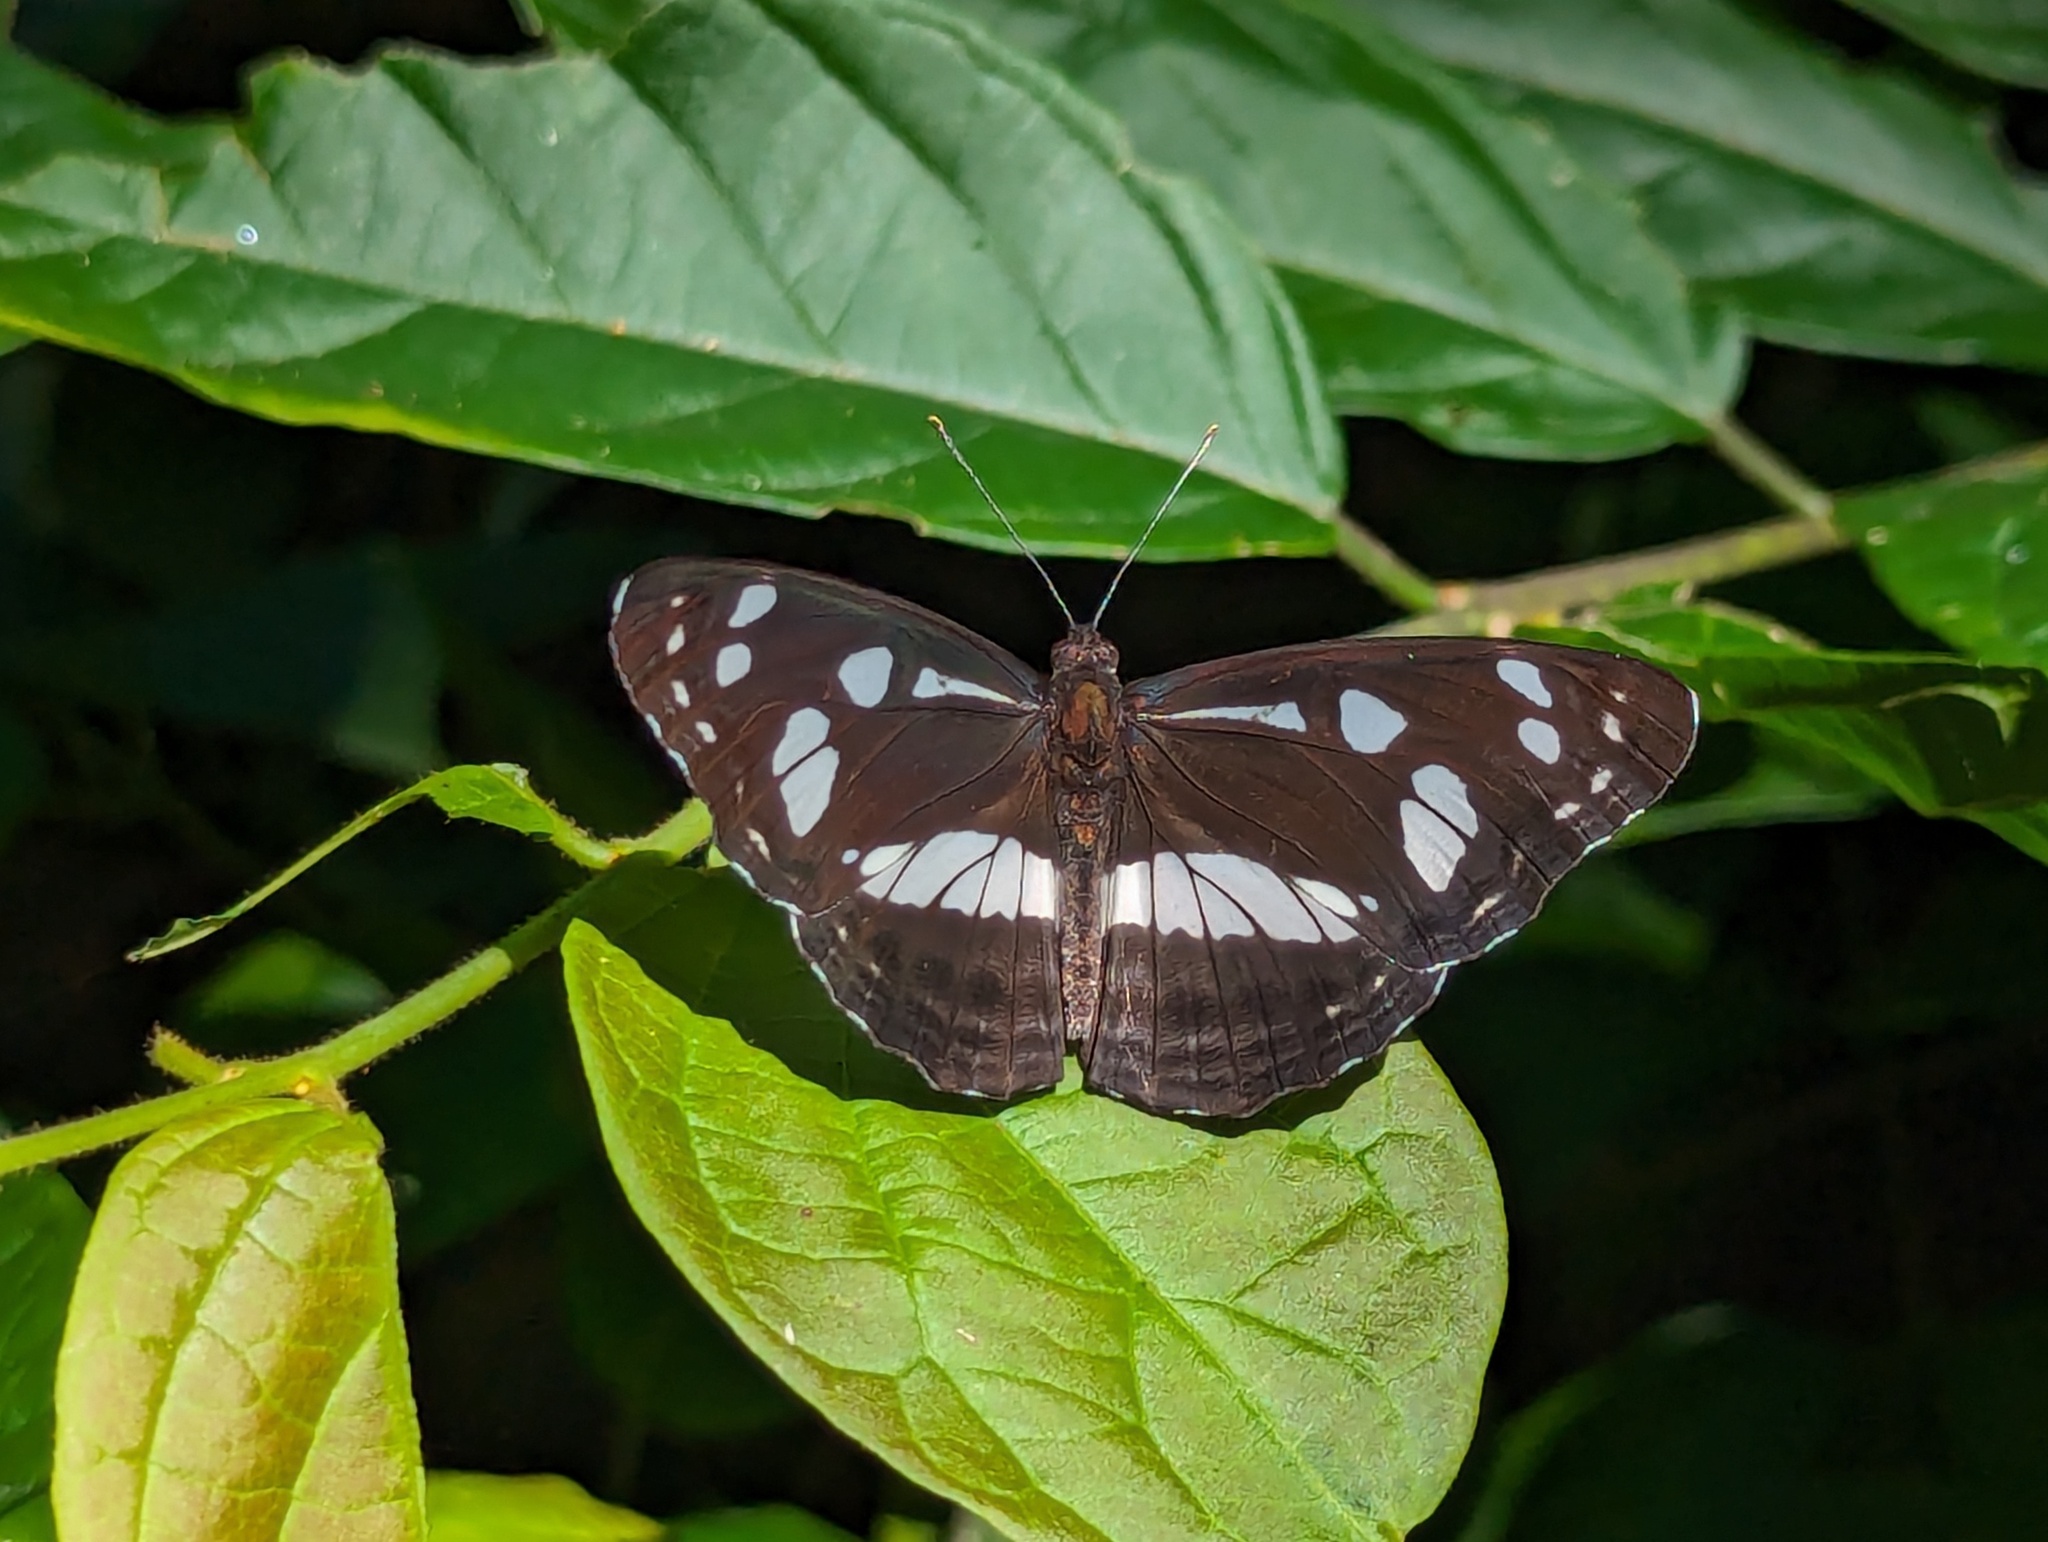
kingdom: Animalia
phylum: Arthropoda
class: Insecta
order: Lepidoptera
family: Nymphalidae
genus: Phaedyma
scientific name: Phaedyma shepherdi
